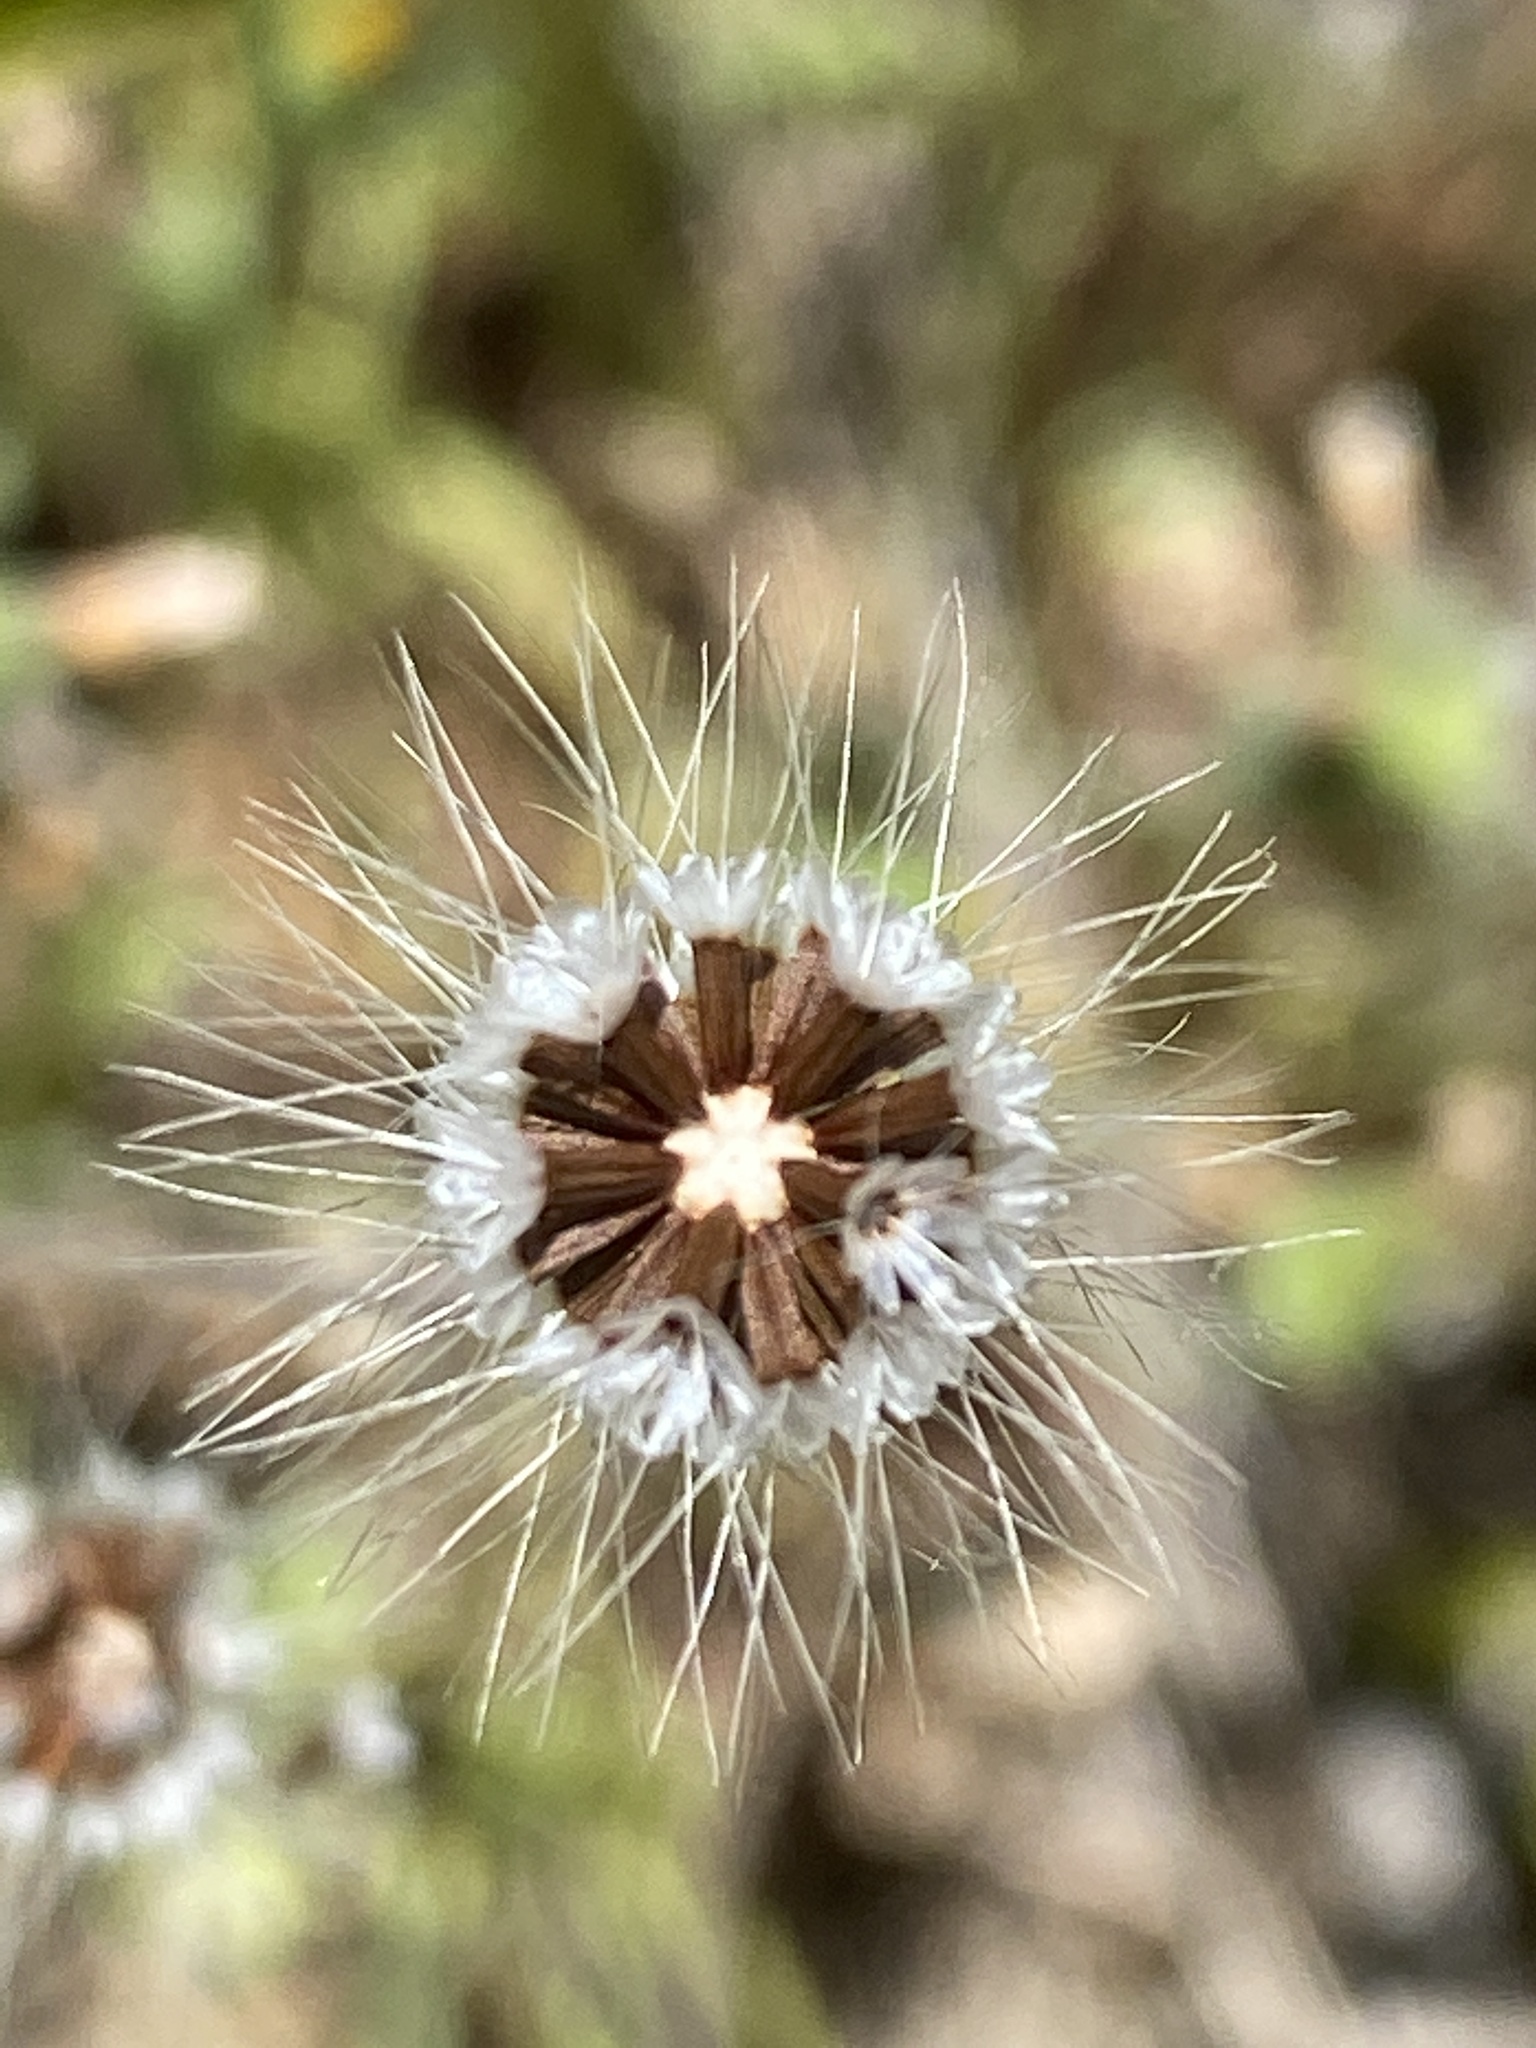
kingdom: Plantae
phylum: Tracheophyta
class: Magnoliopsida
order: Asterales
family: Asteraceae
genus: Krigia
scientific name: Krigia virginica
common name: Virginia dwarf-dandelion
